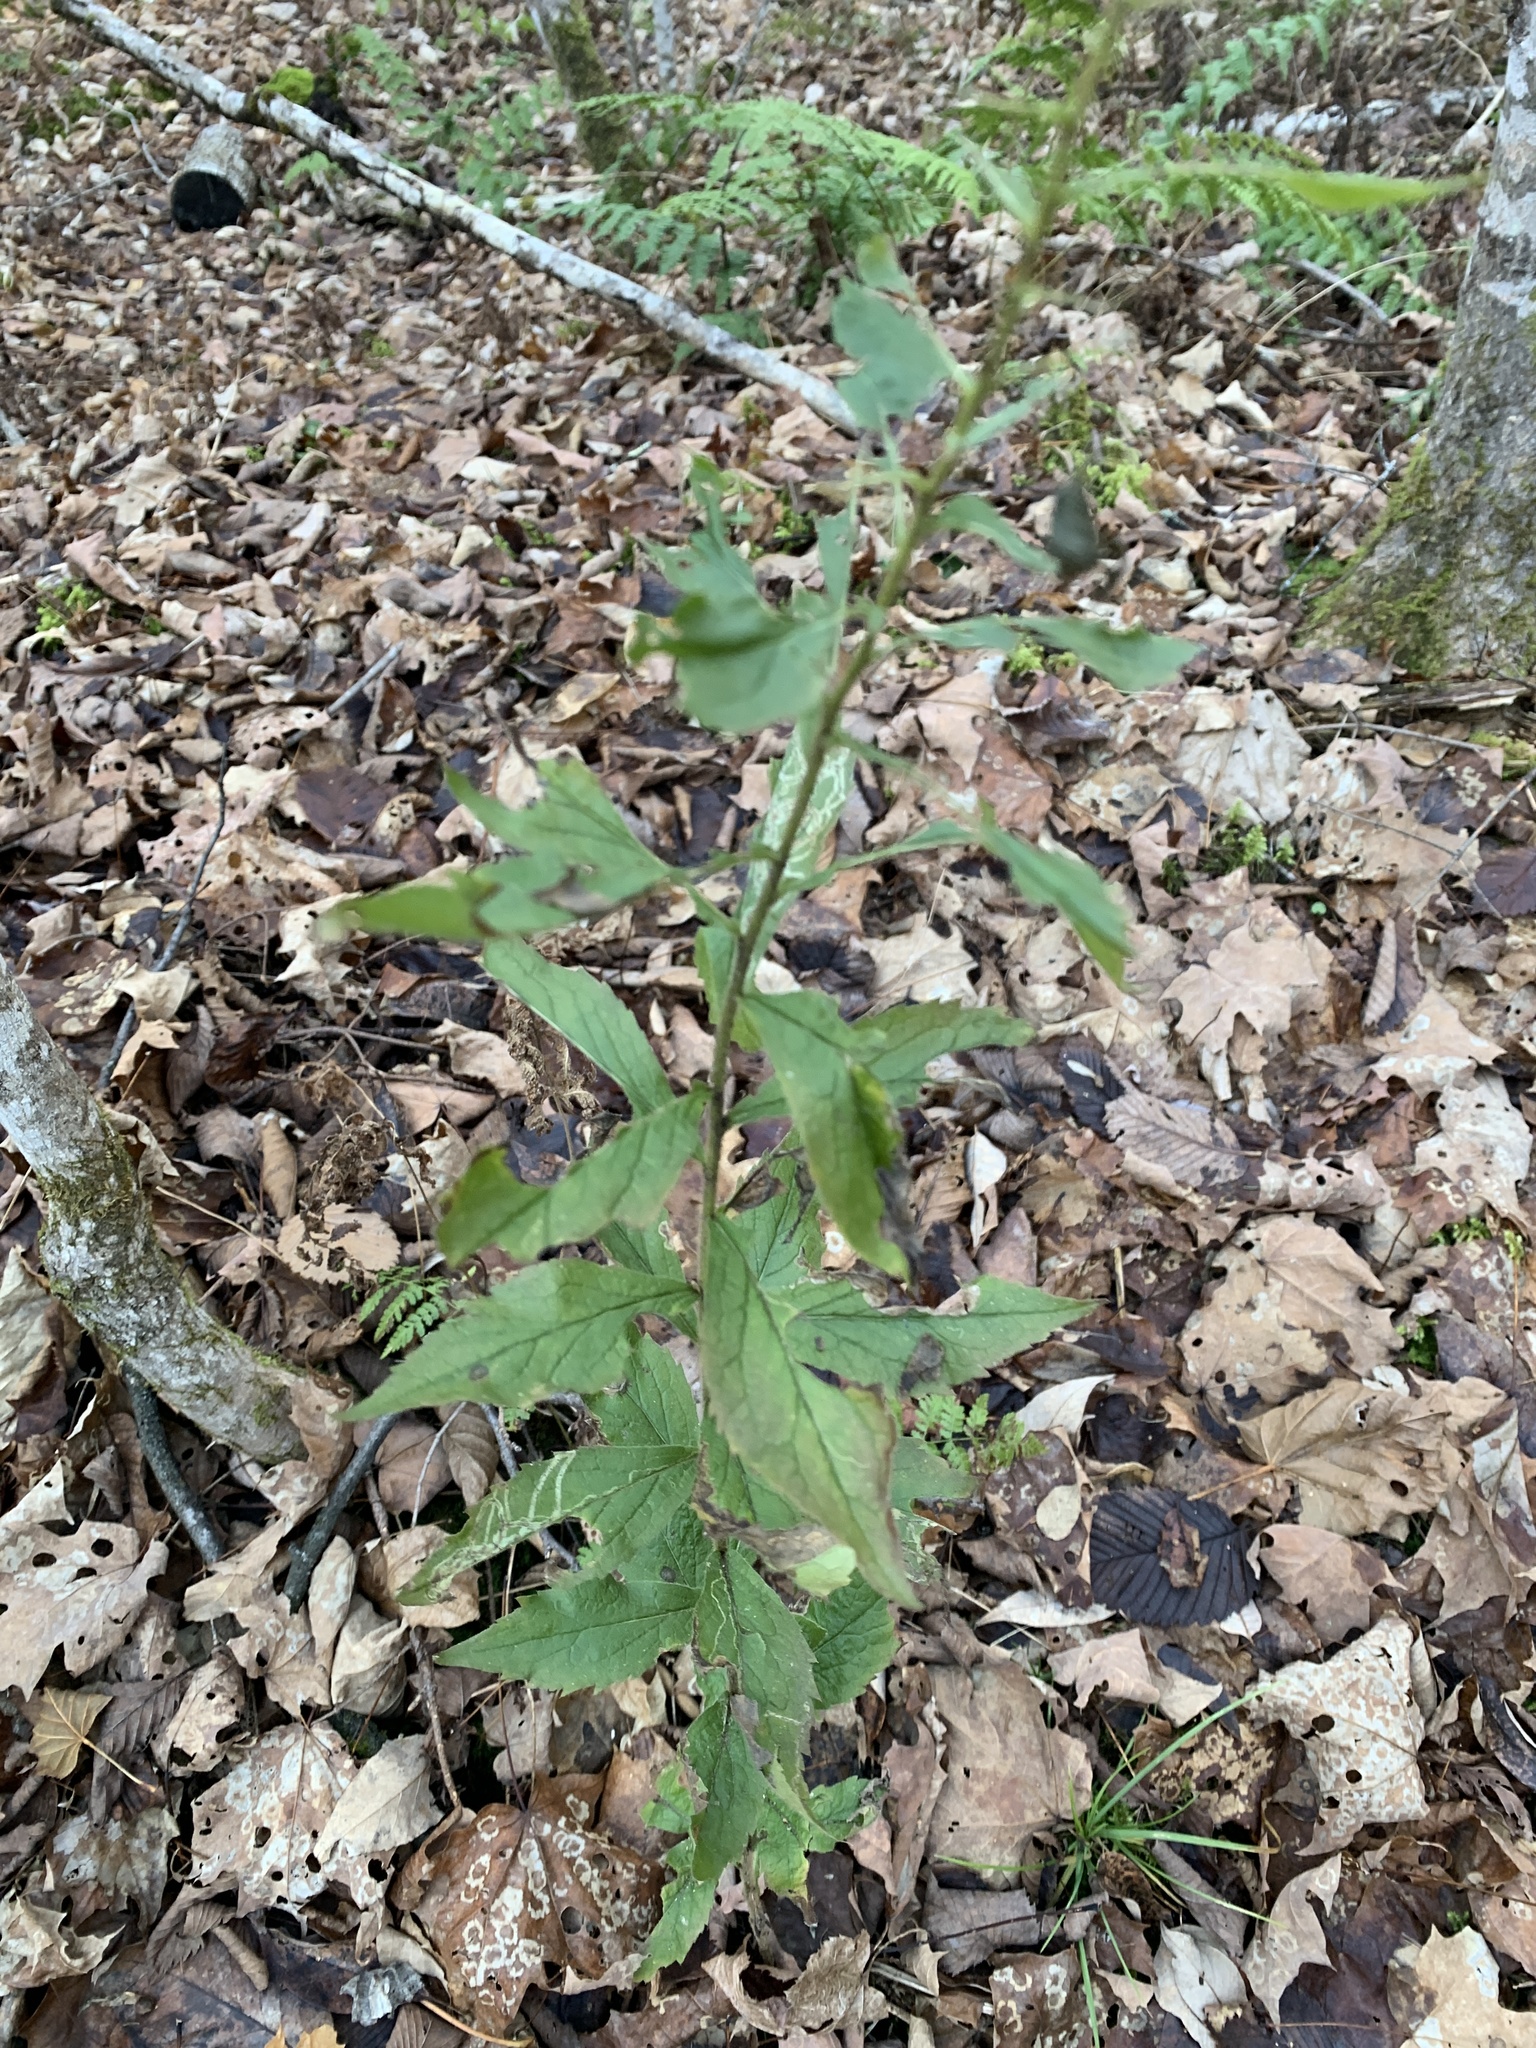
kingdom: Plantae
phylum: Tracheophyta
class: Magnoliopsida
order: Asterales
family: Asteraceae
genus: Solidago
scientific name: Solidago rugosa
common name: Rough-stemmed goldenrod
